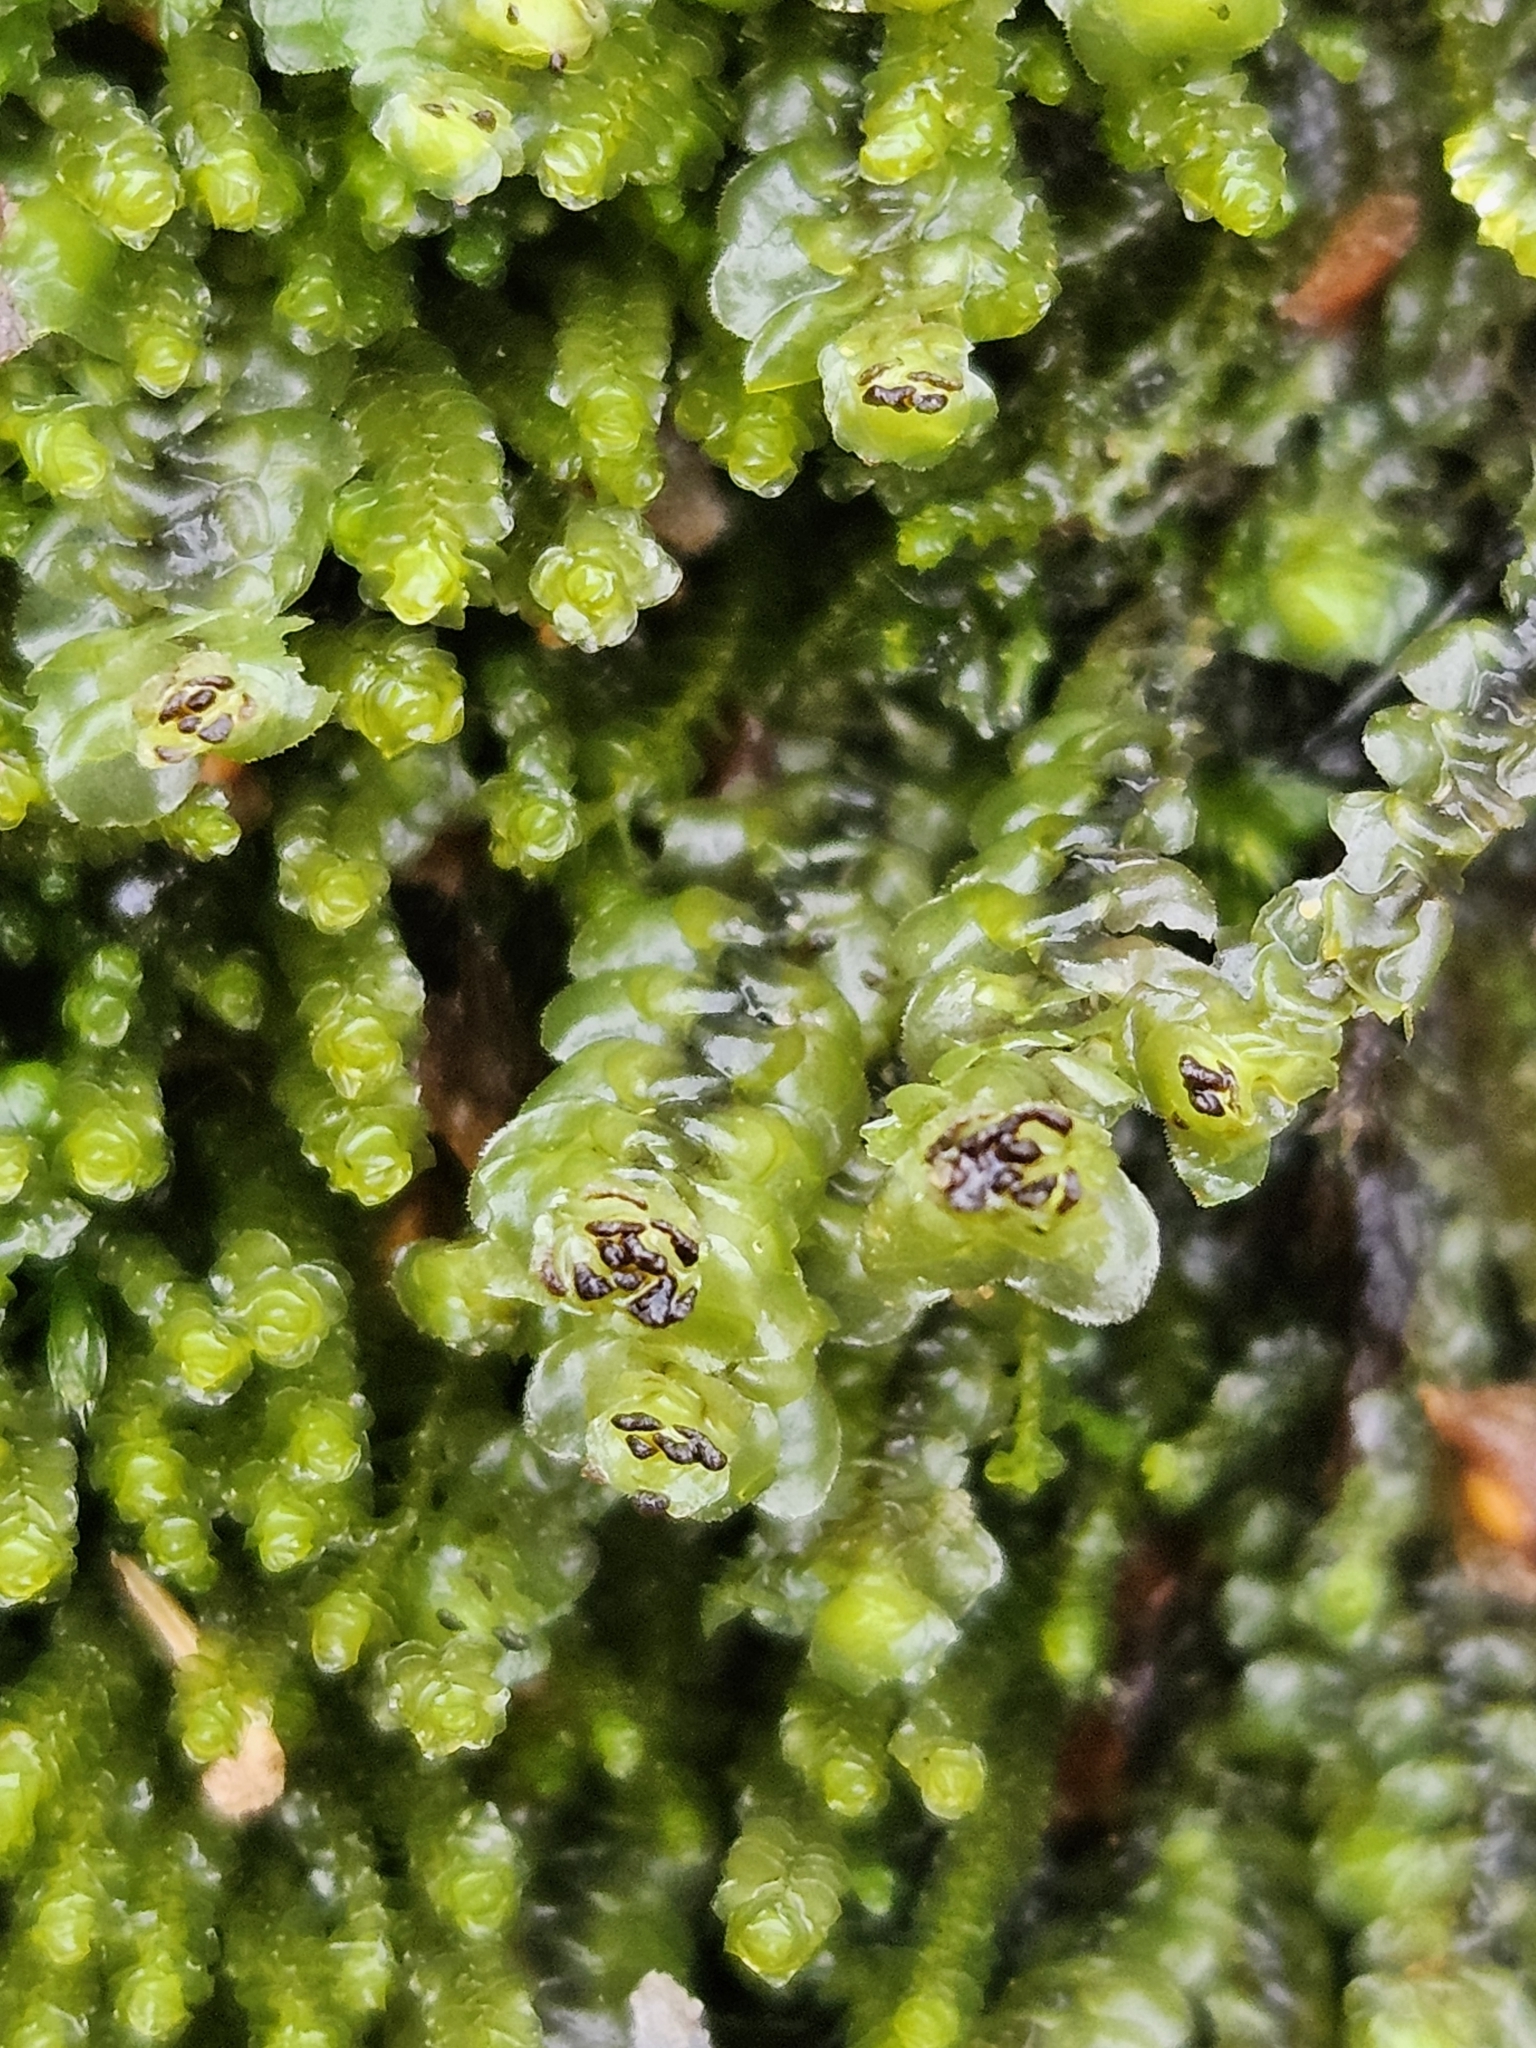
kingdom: Plantae
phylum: Marchantiophyta
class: Jungermanniopsida
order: Jungermanniales
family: Scapaniaceae
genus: Scapania
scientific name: Scapania nemorea
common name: Grove earwort
